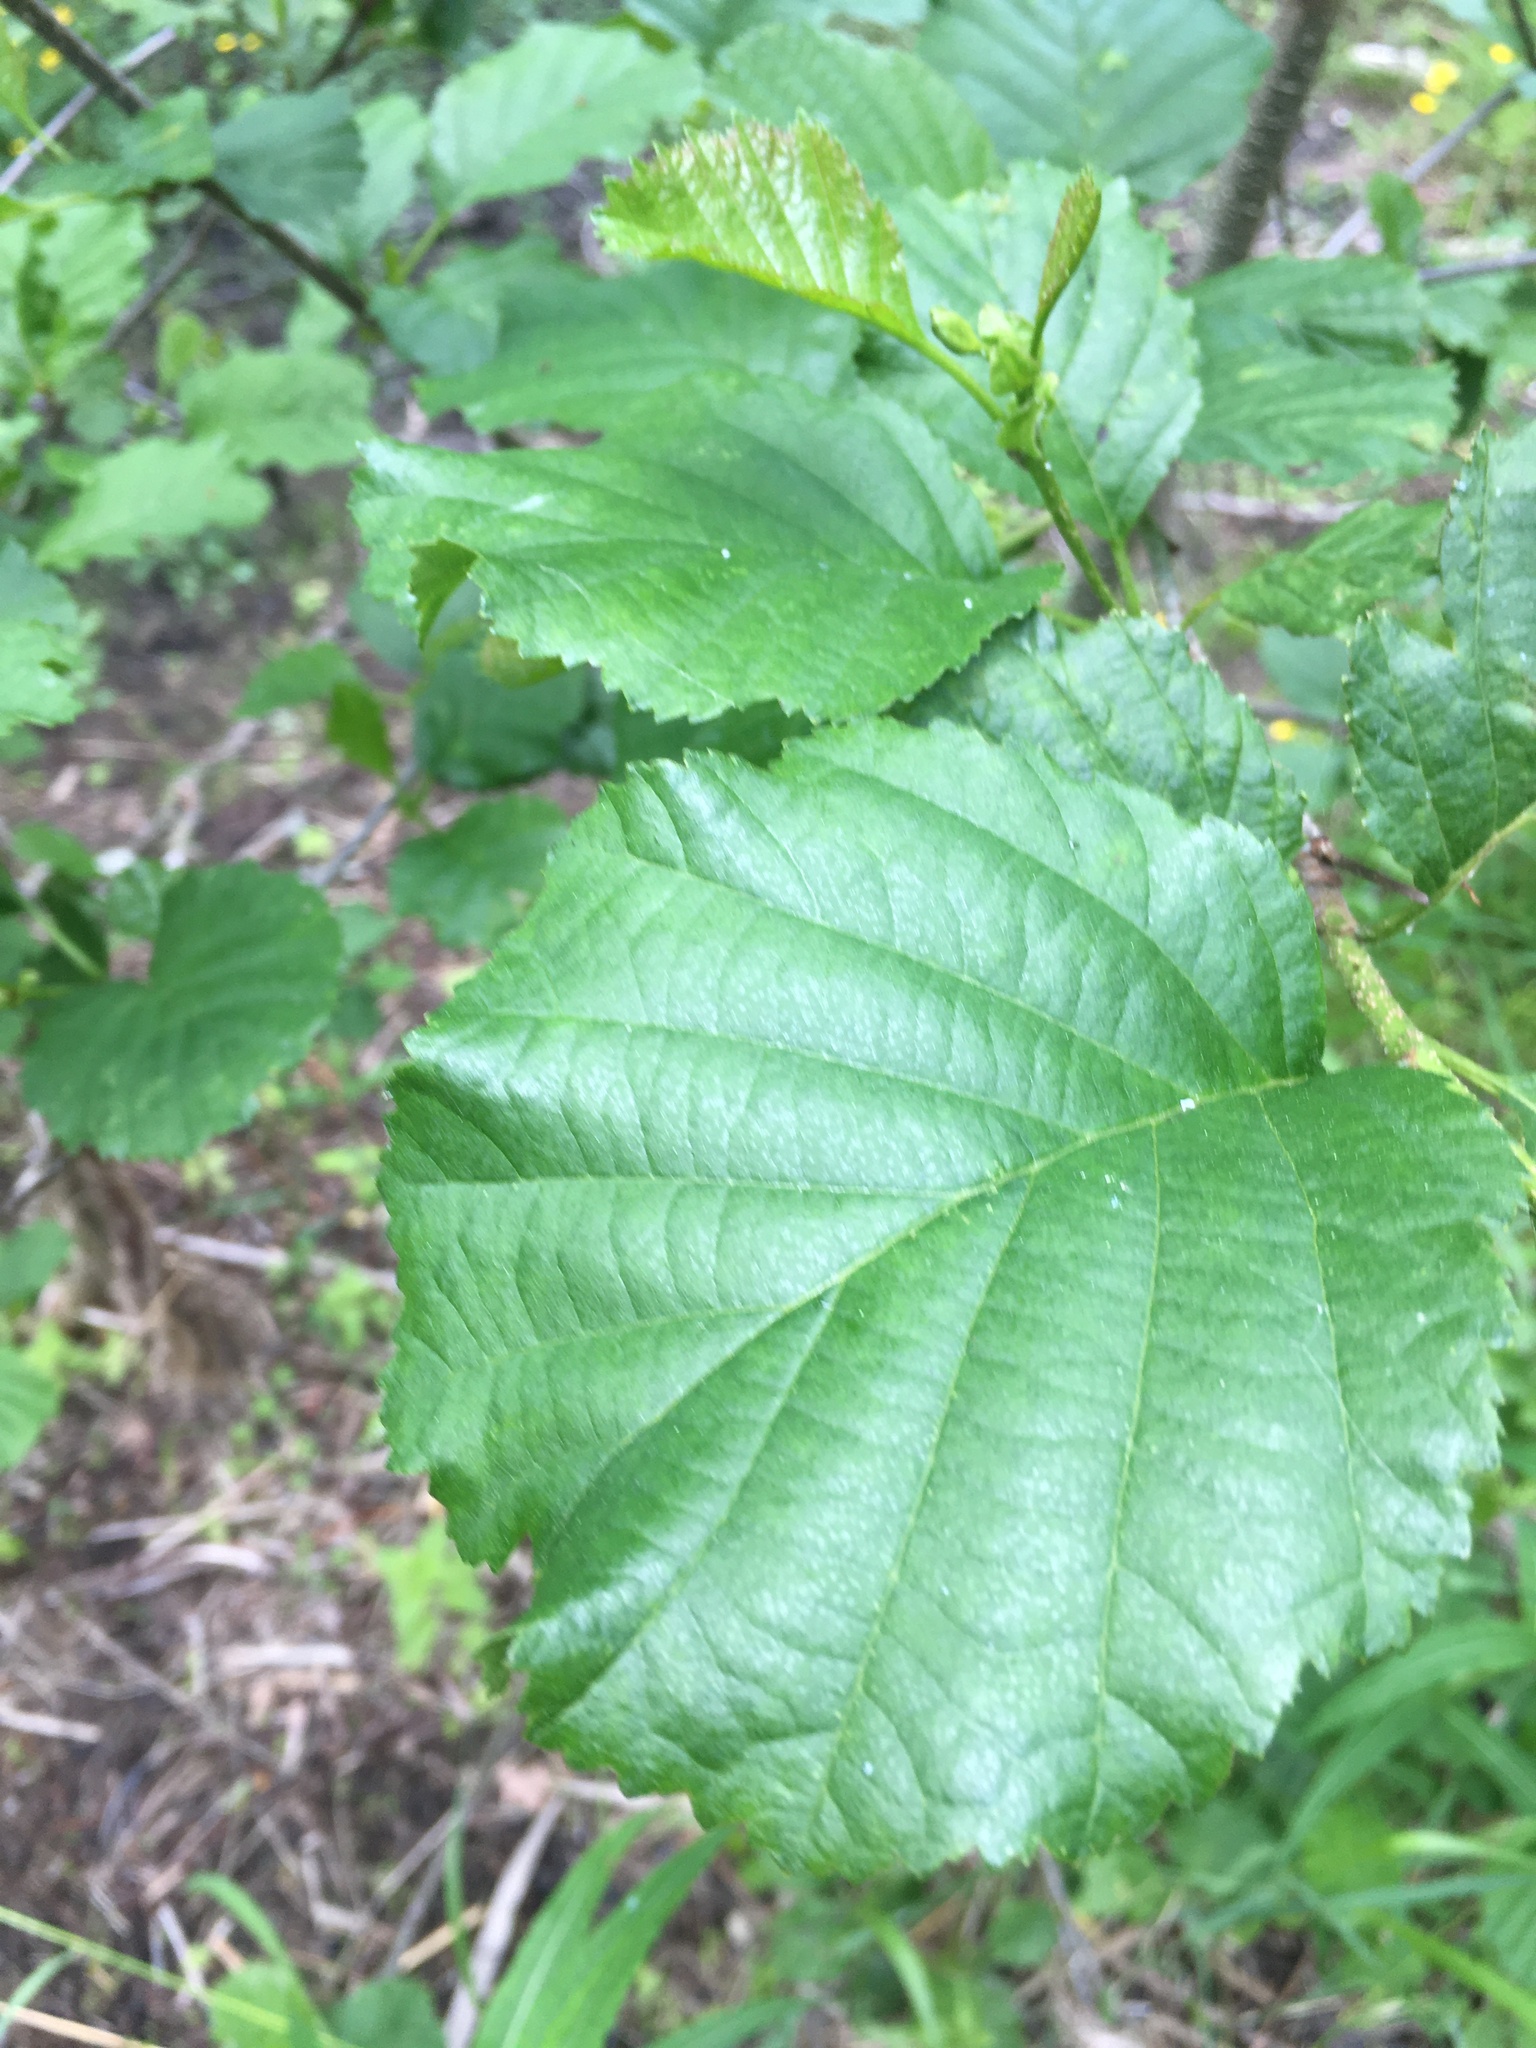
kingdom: Plantae
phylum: Tracheophyta
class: Magnoliopsida
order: Fagales
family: Betulaceae
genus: Alnus
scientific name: Alnus glutinosa
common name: Black alder
